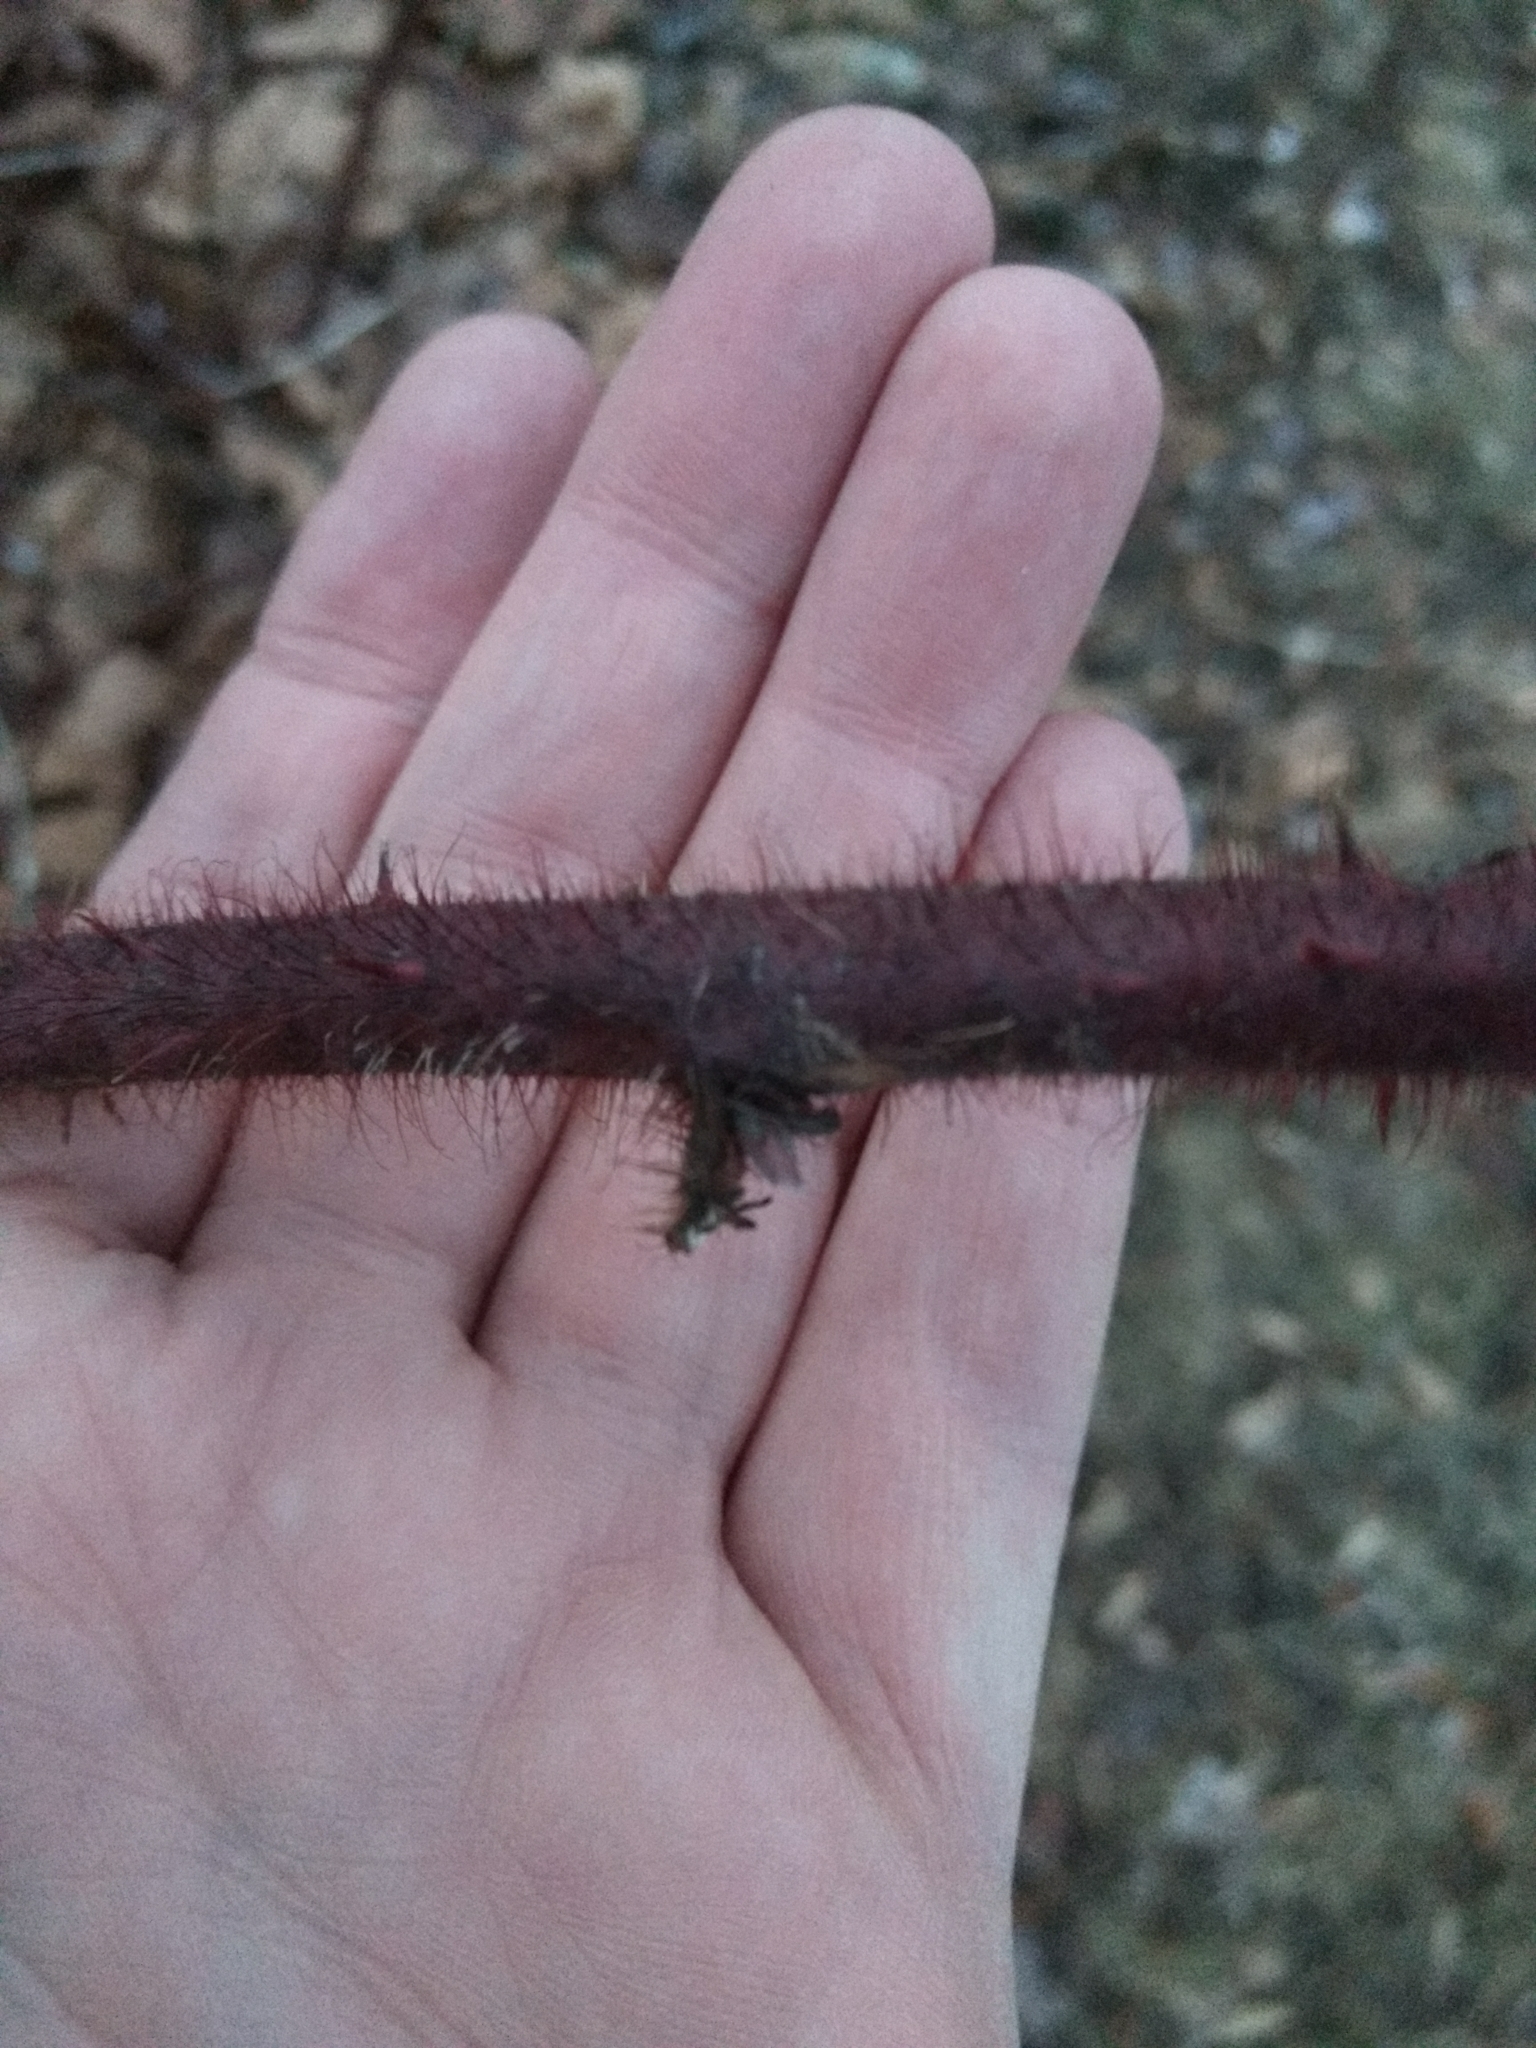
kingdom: Plantae
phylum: Tracheophyta
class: Magnoliopsida
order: Rosales
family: Rosaceae
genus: Rubus
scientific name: Rubus phoenicolasius
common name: Japanese wineberry
